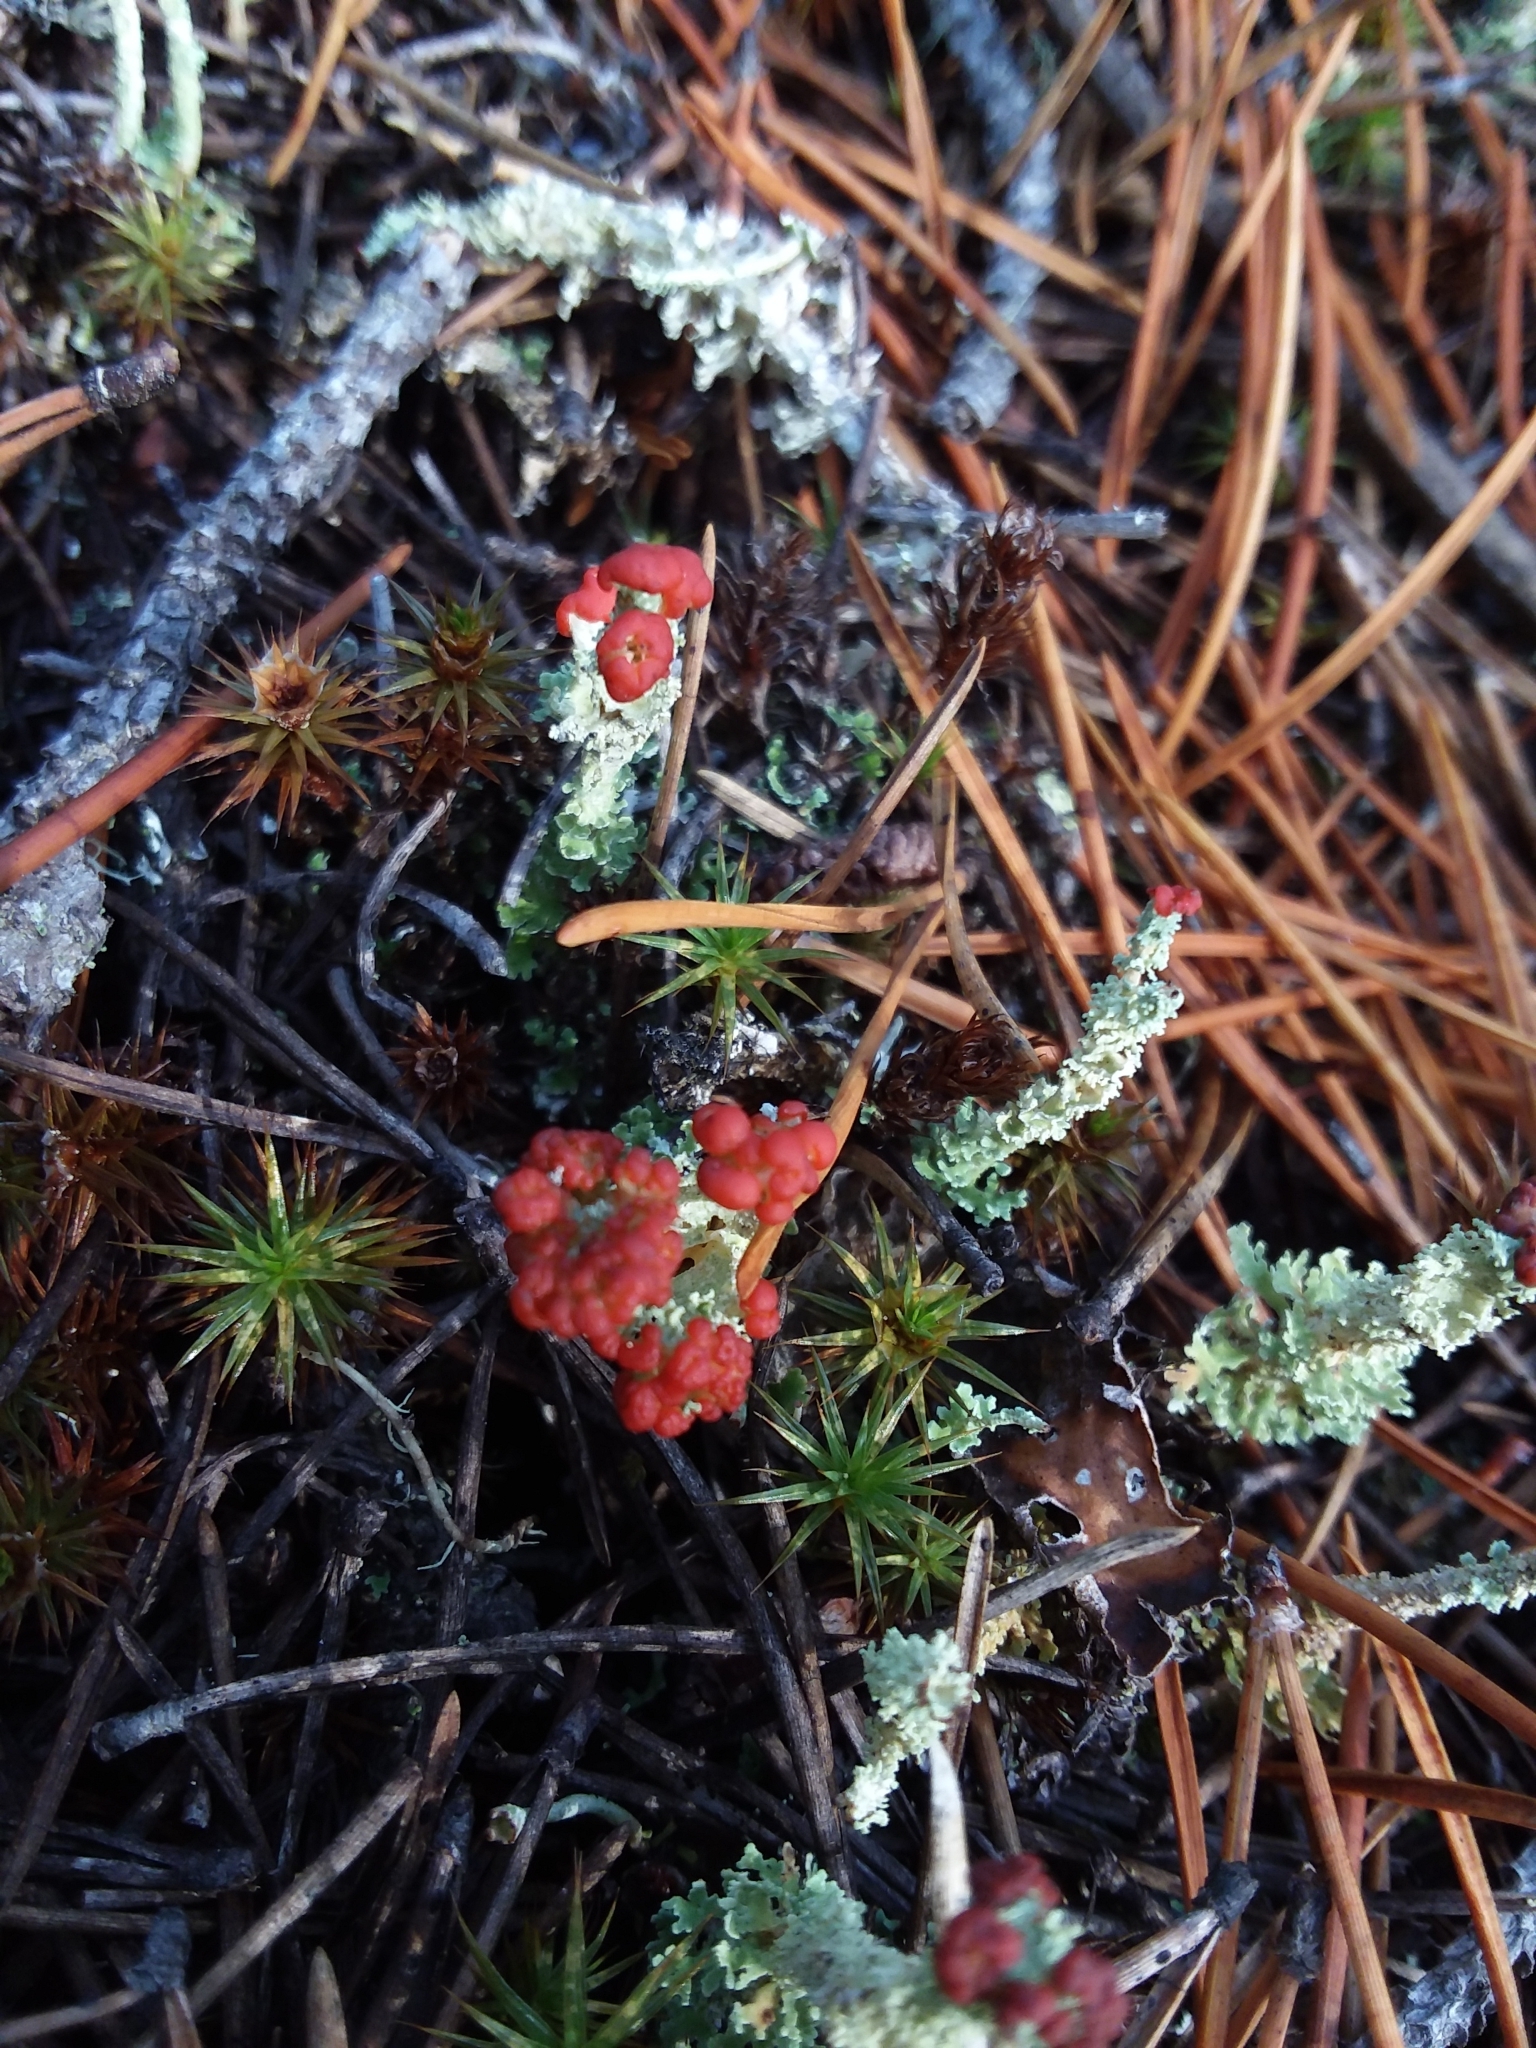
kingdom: Fungi
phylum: Ascomycota
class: Lecanoromycetes
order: Lecanorales
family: Cladoniaceae
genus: Cladonia
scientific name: Cladonia bellidiflora
